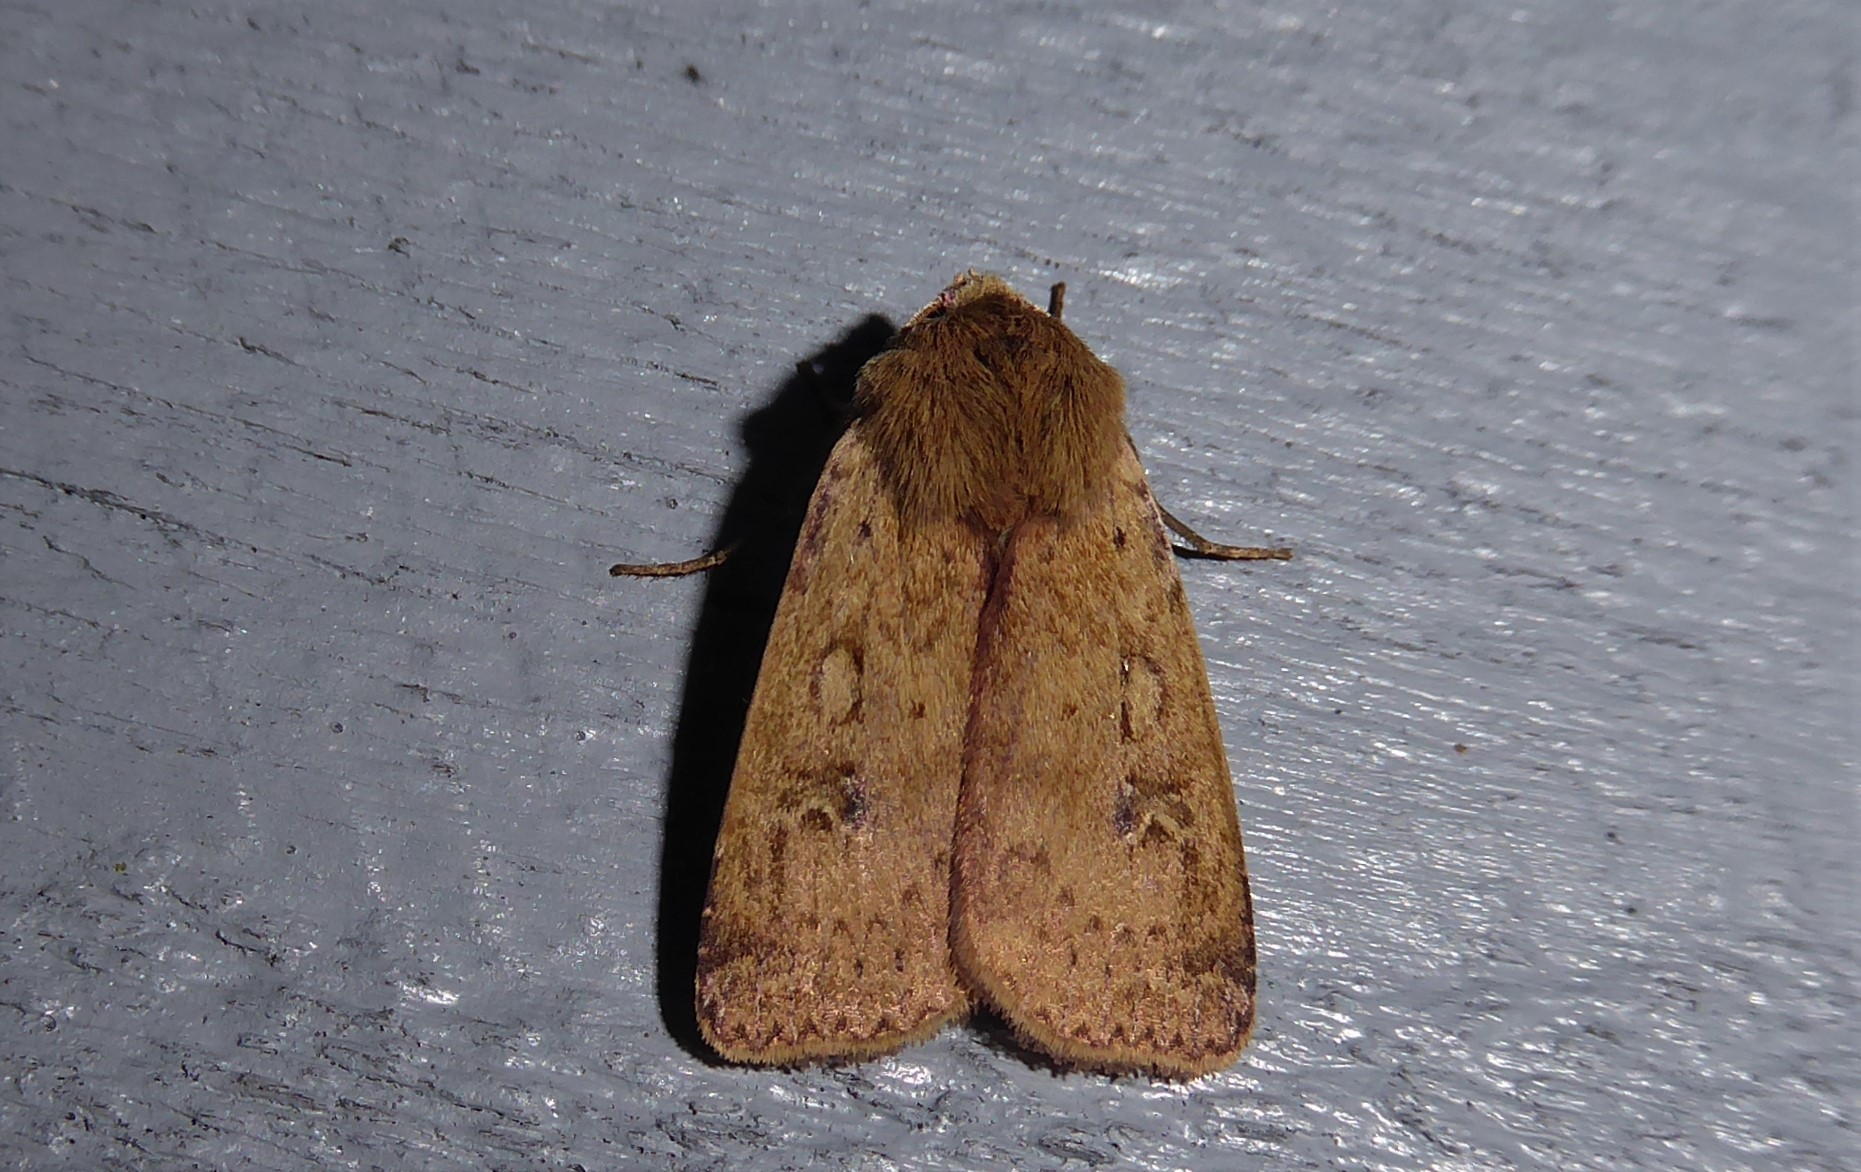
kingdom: Animalia
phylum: Arthropoda
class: Insecta
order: Lepidoptera
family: Noctuidae
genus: Diarsia
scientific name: Diarsia intermixta
